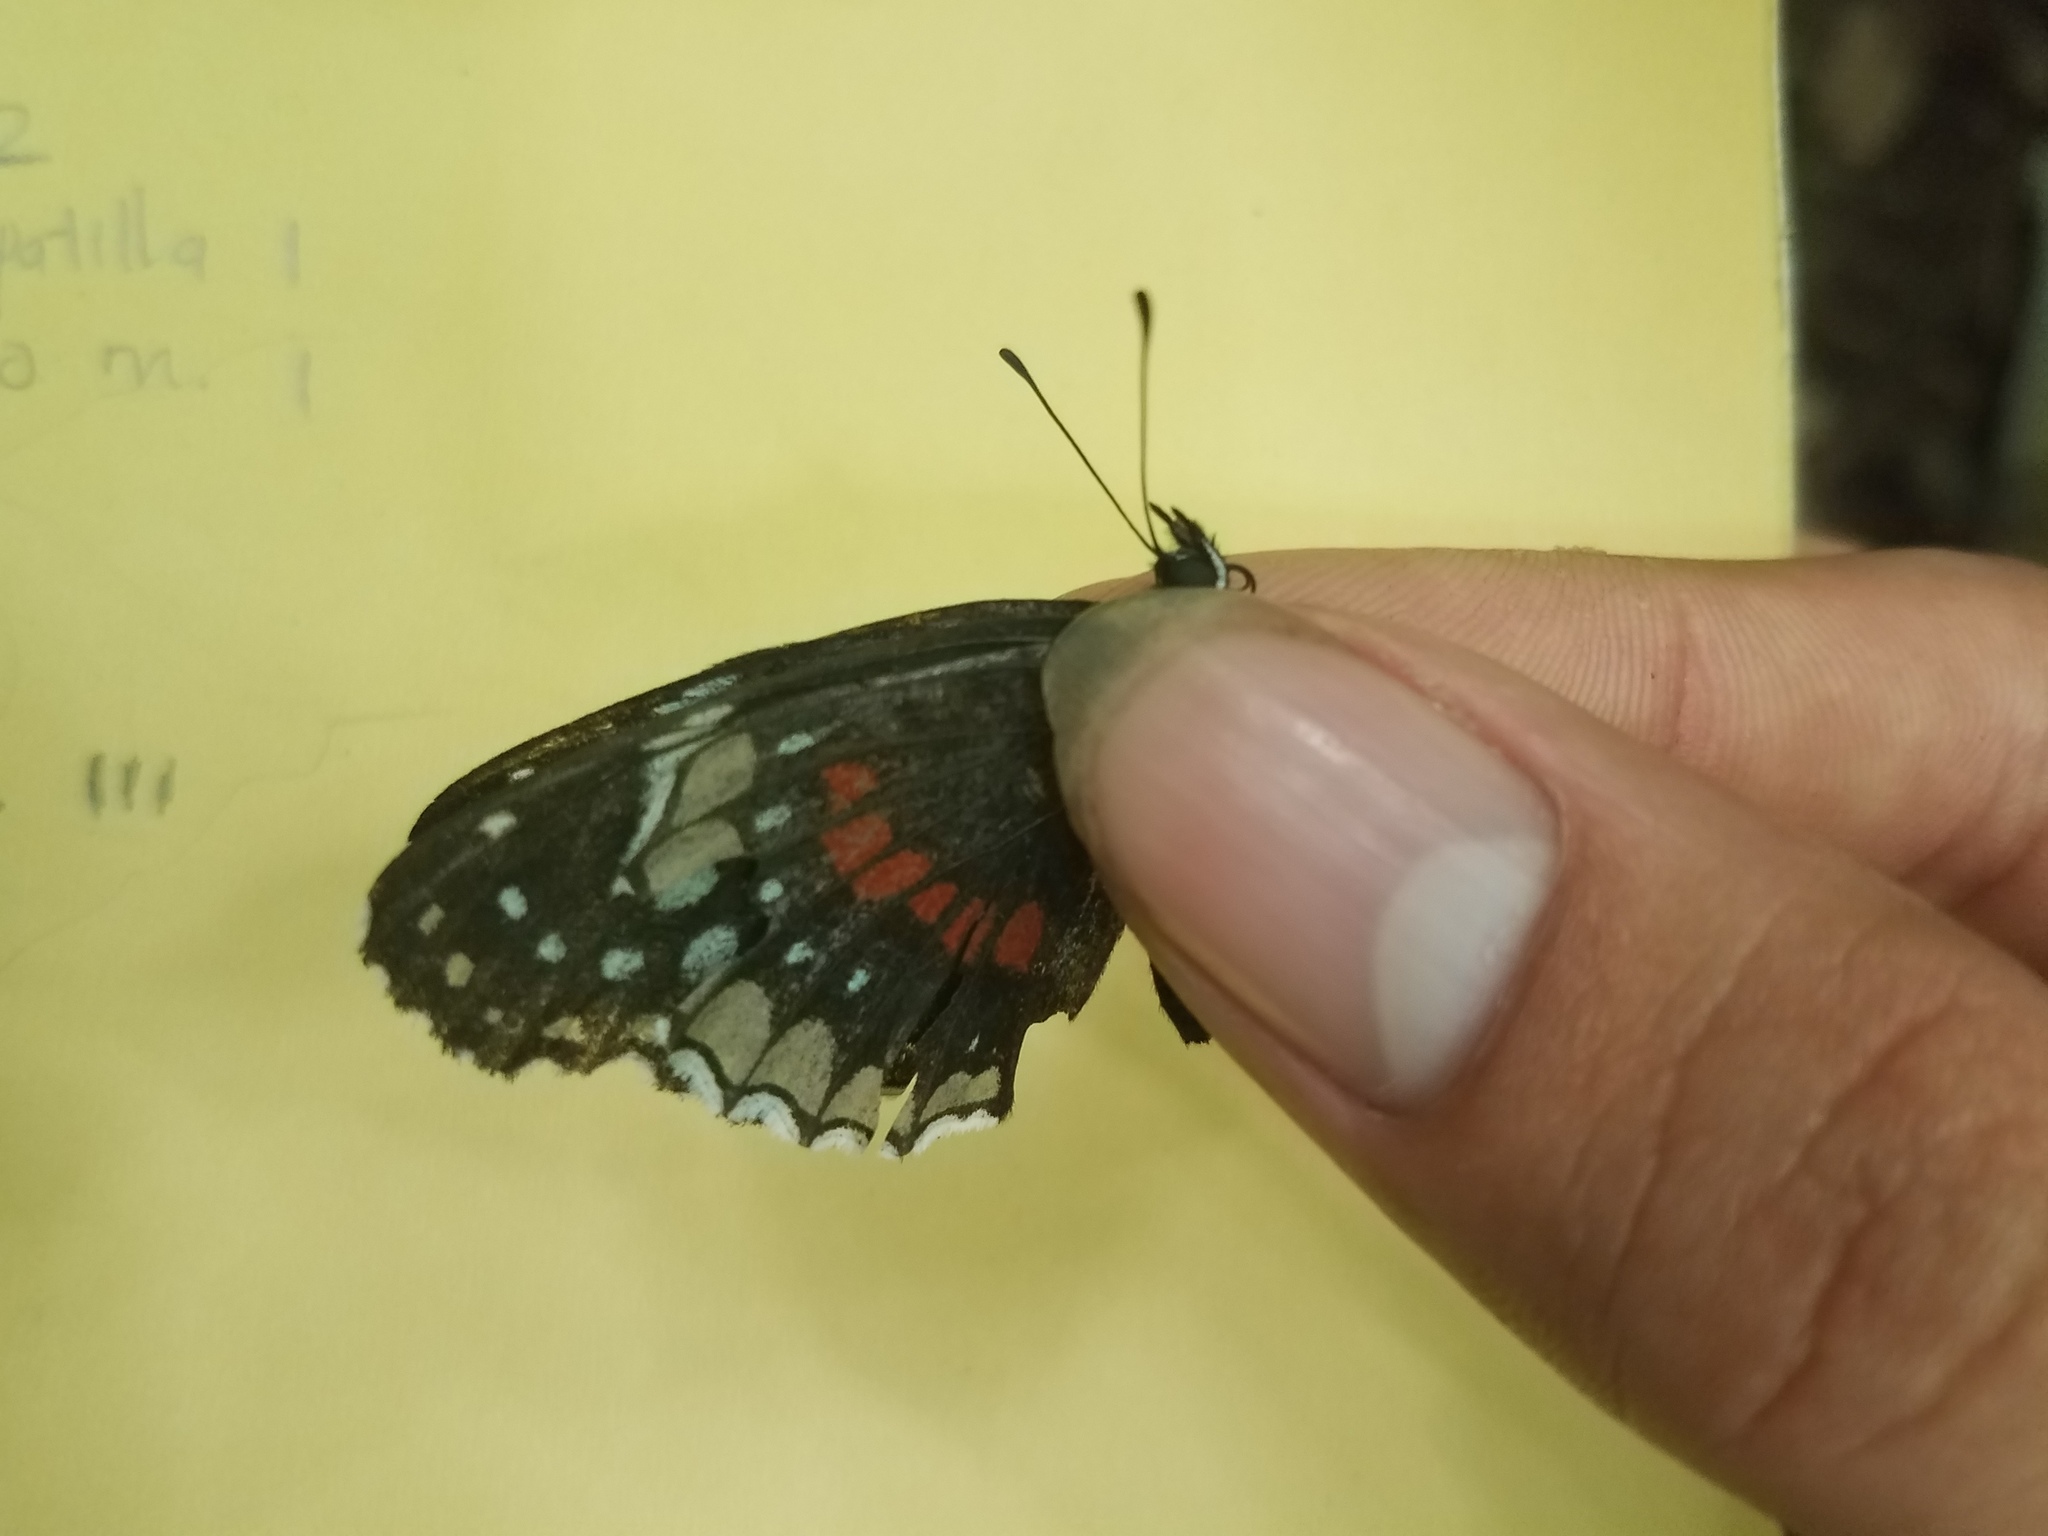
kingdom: Animalia
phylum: Arthropoda
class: Insecta
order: Lepidoptera
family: Nymphalidae
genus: Chlosyne
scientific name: Chlosyne hippodrome
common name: Simple patch
